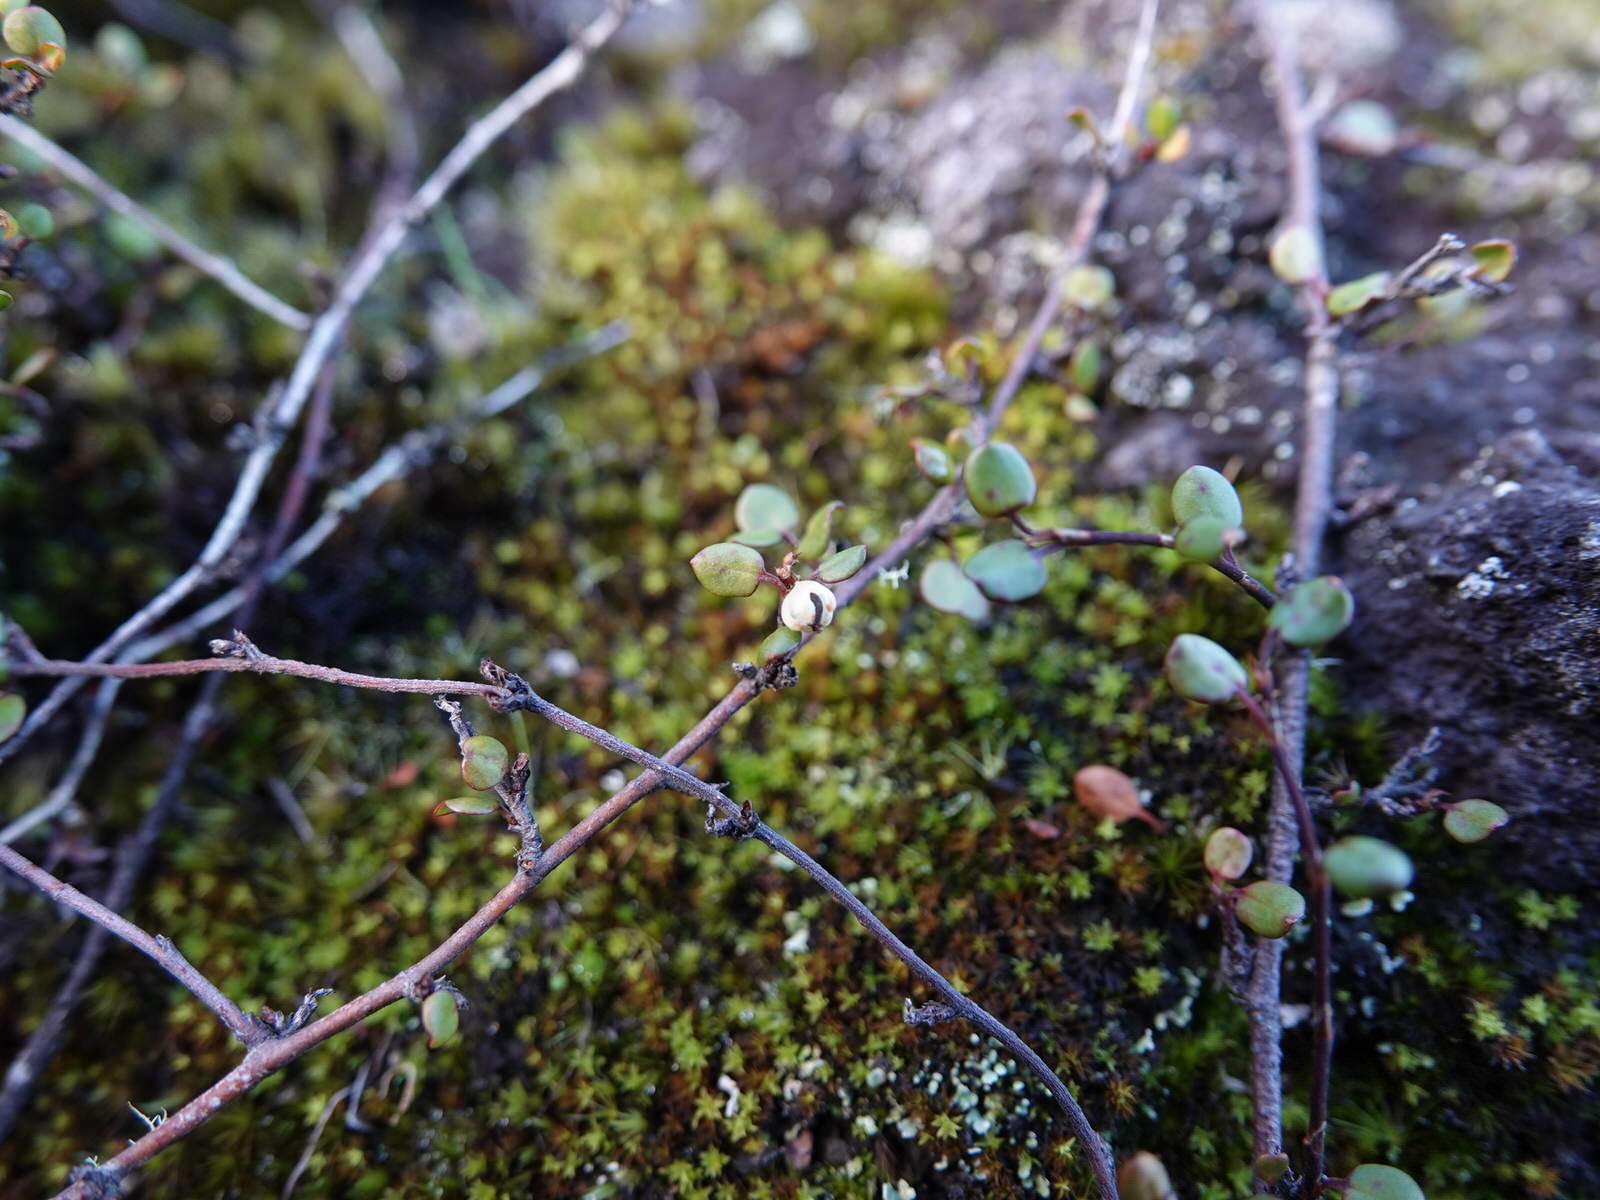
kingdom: Plantae
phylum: Tracheophyta
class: Magnoliopsida
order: Caryophyllales
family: Polygonaceae
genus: Muehlenbeckia
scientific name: Muehlenbeckia complexa
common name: Wireplant
